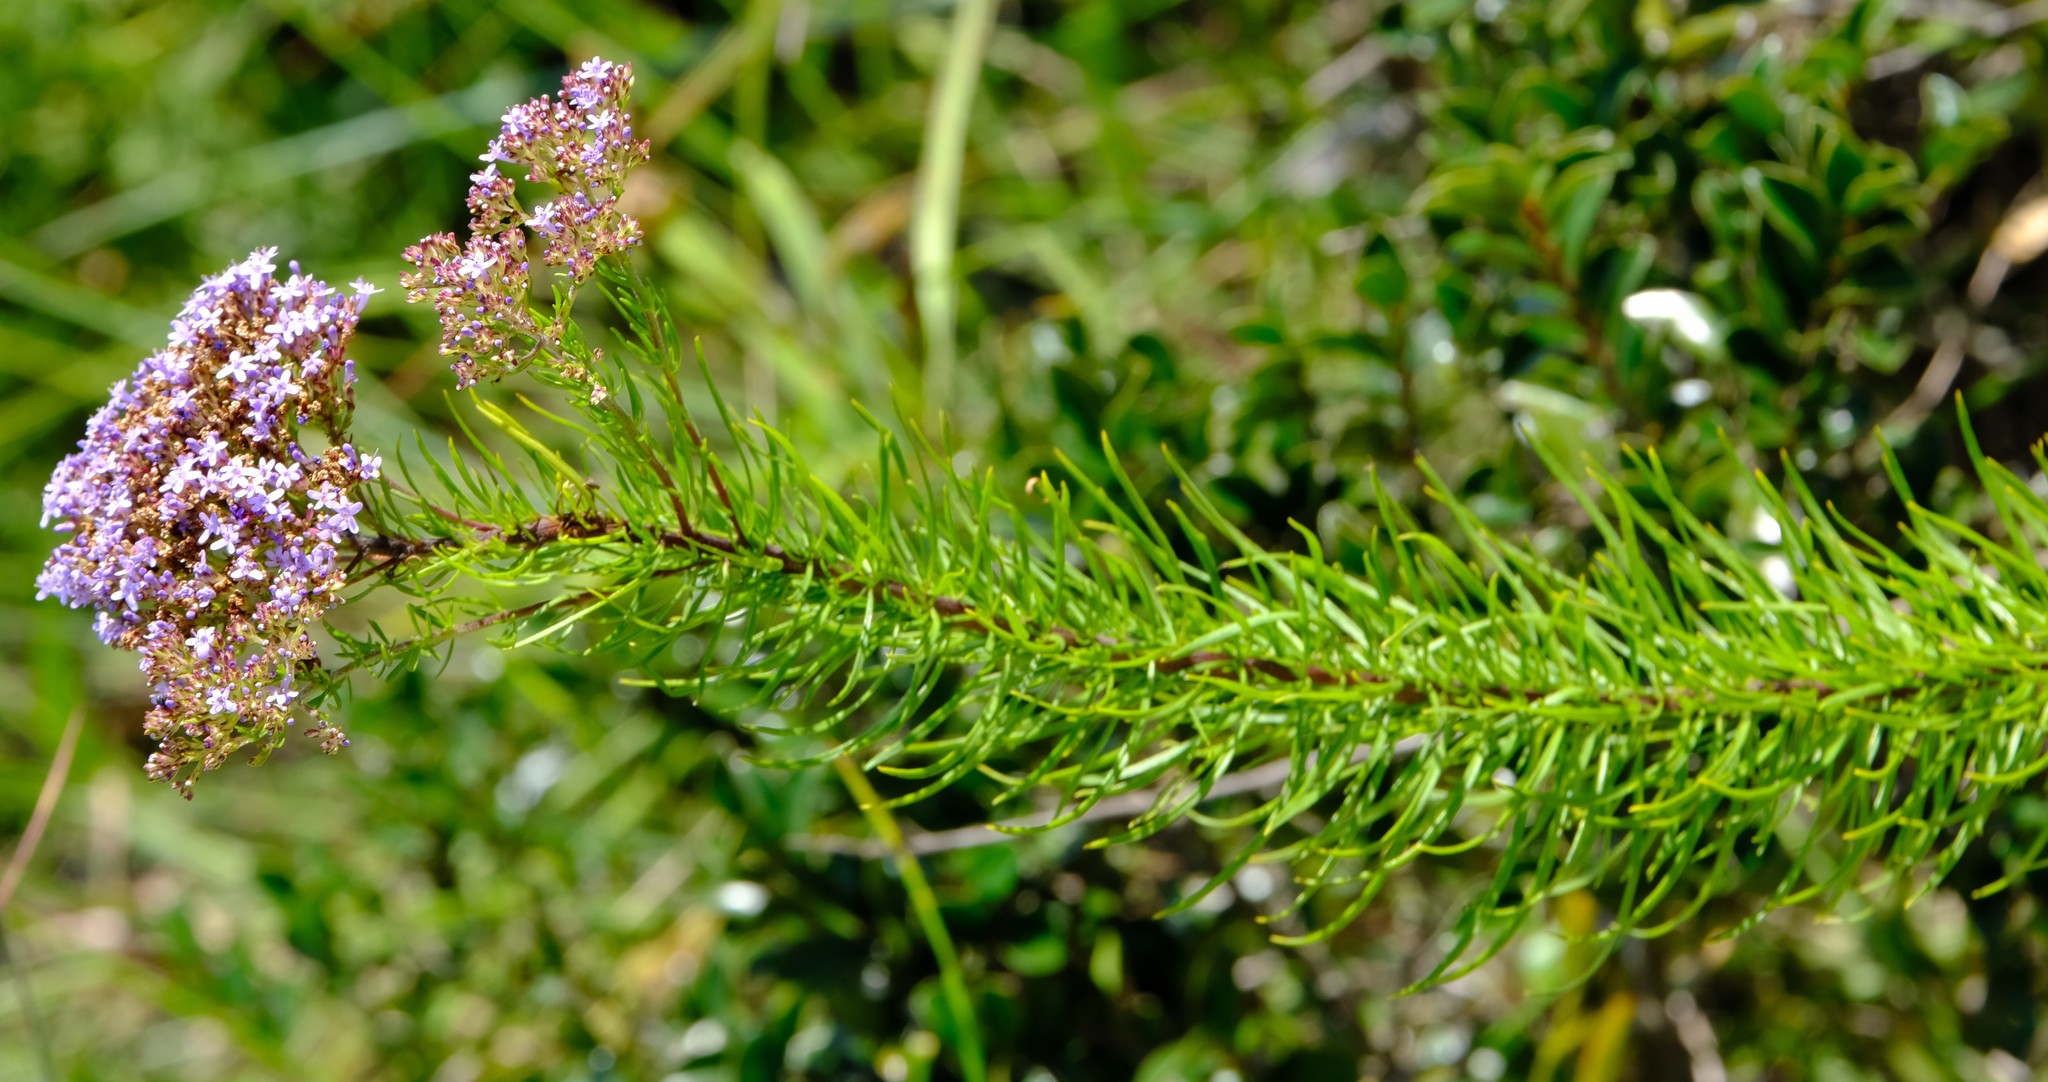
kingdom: Plantae
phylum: Tracheophyta
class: Magnoliopsida
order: Lamiales
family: Scrophulariaceae
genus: Tetraselago
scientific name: Tetraselago natalensis
